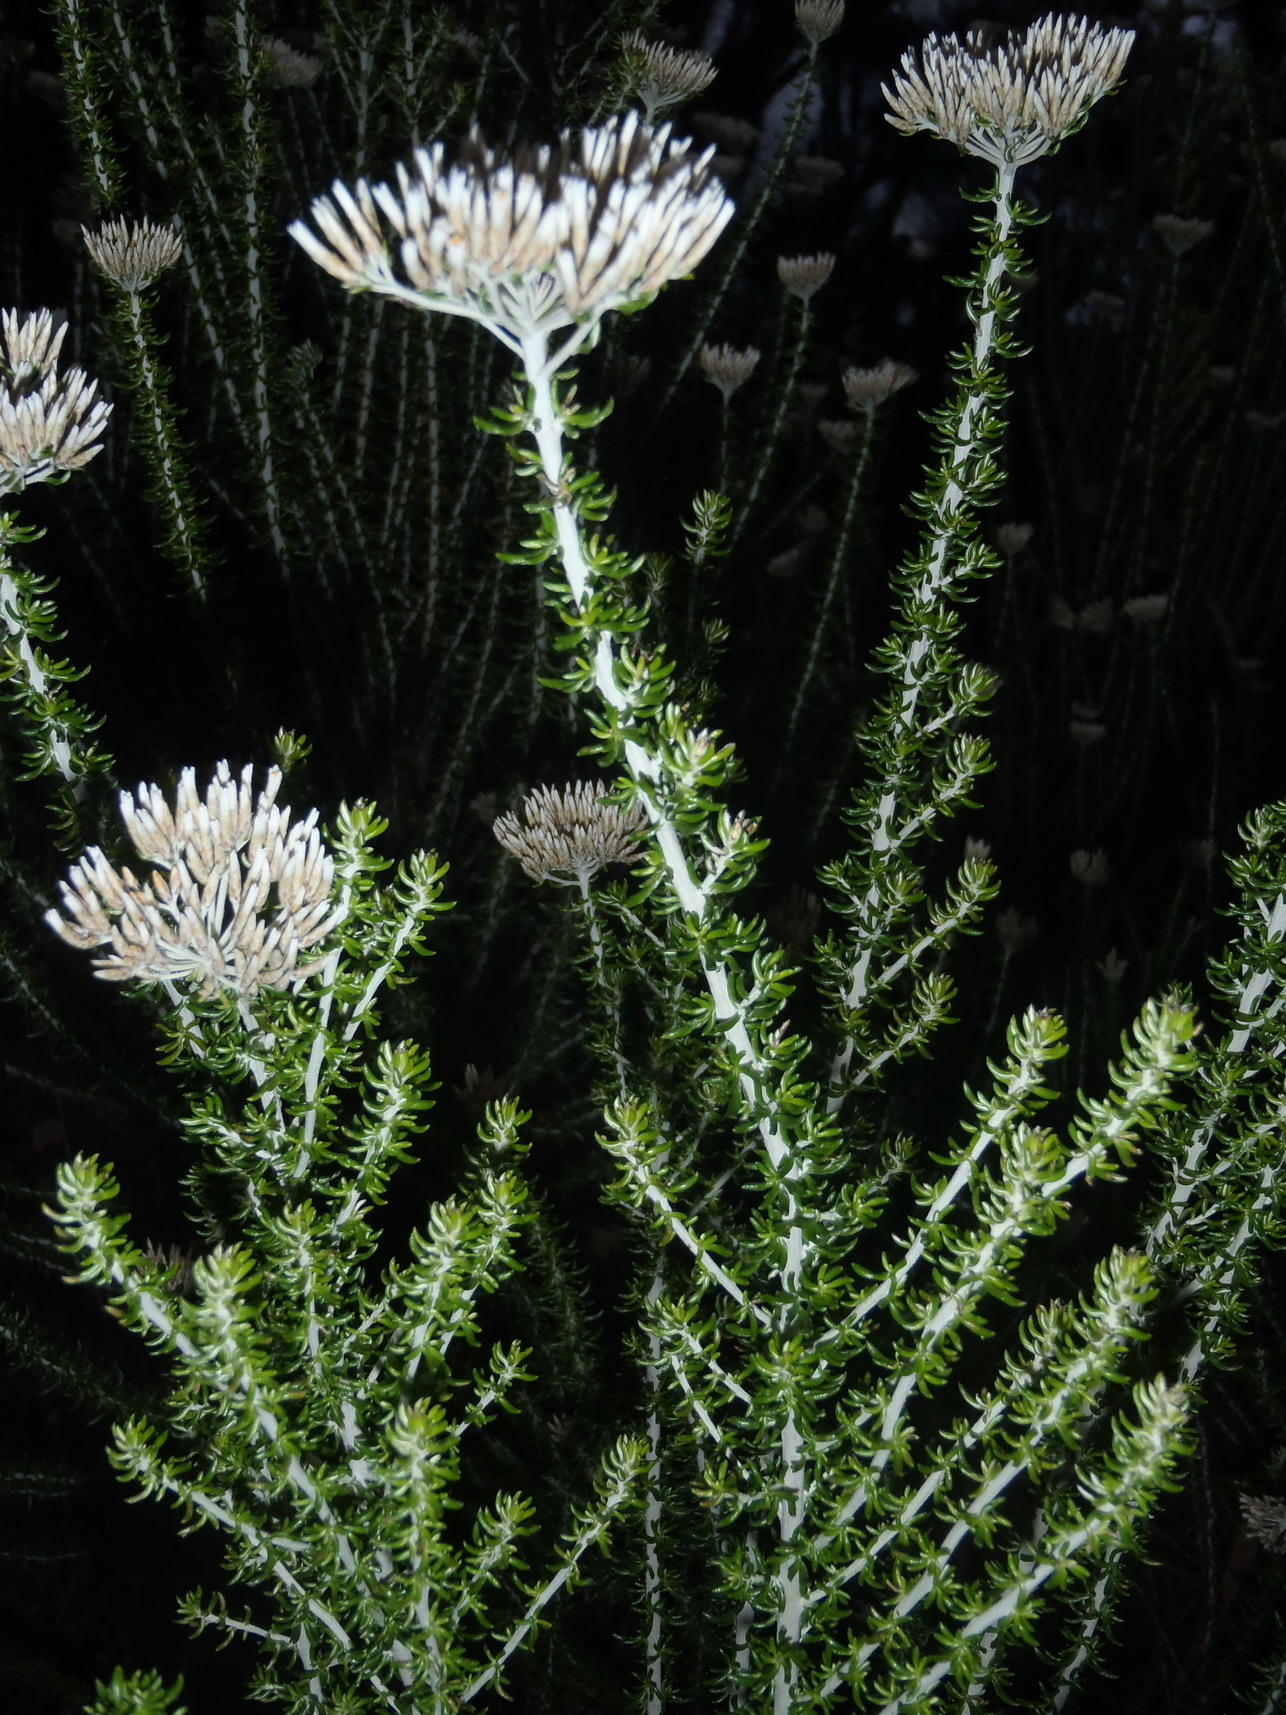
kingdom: Plantae
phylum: Tracheophyta
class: Magnoliopsida
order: Asterales
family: Asteraceae
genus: Metalasia
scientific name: Metalasia muricata
